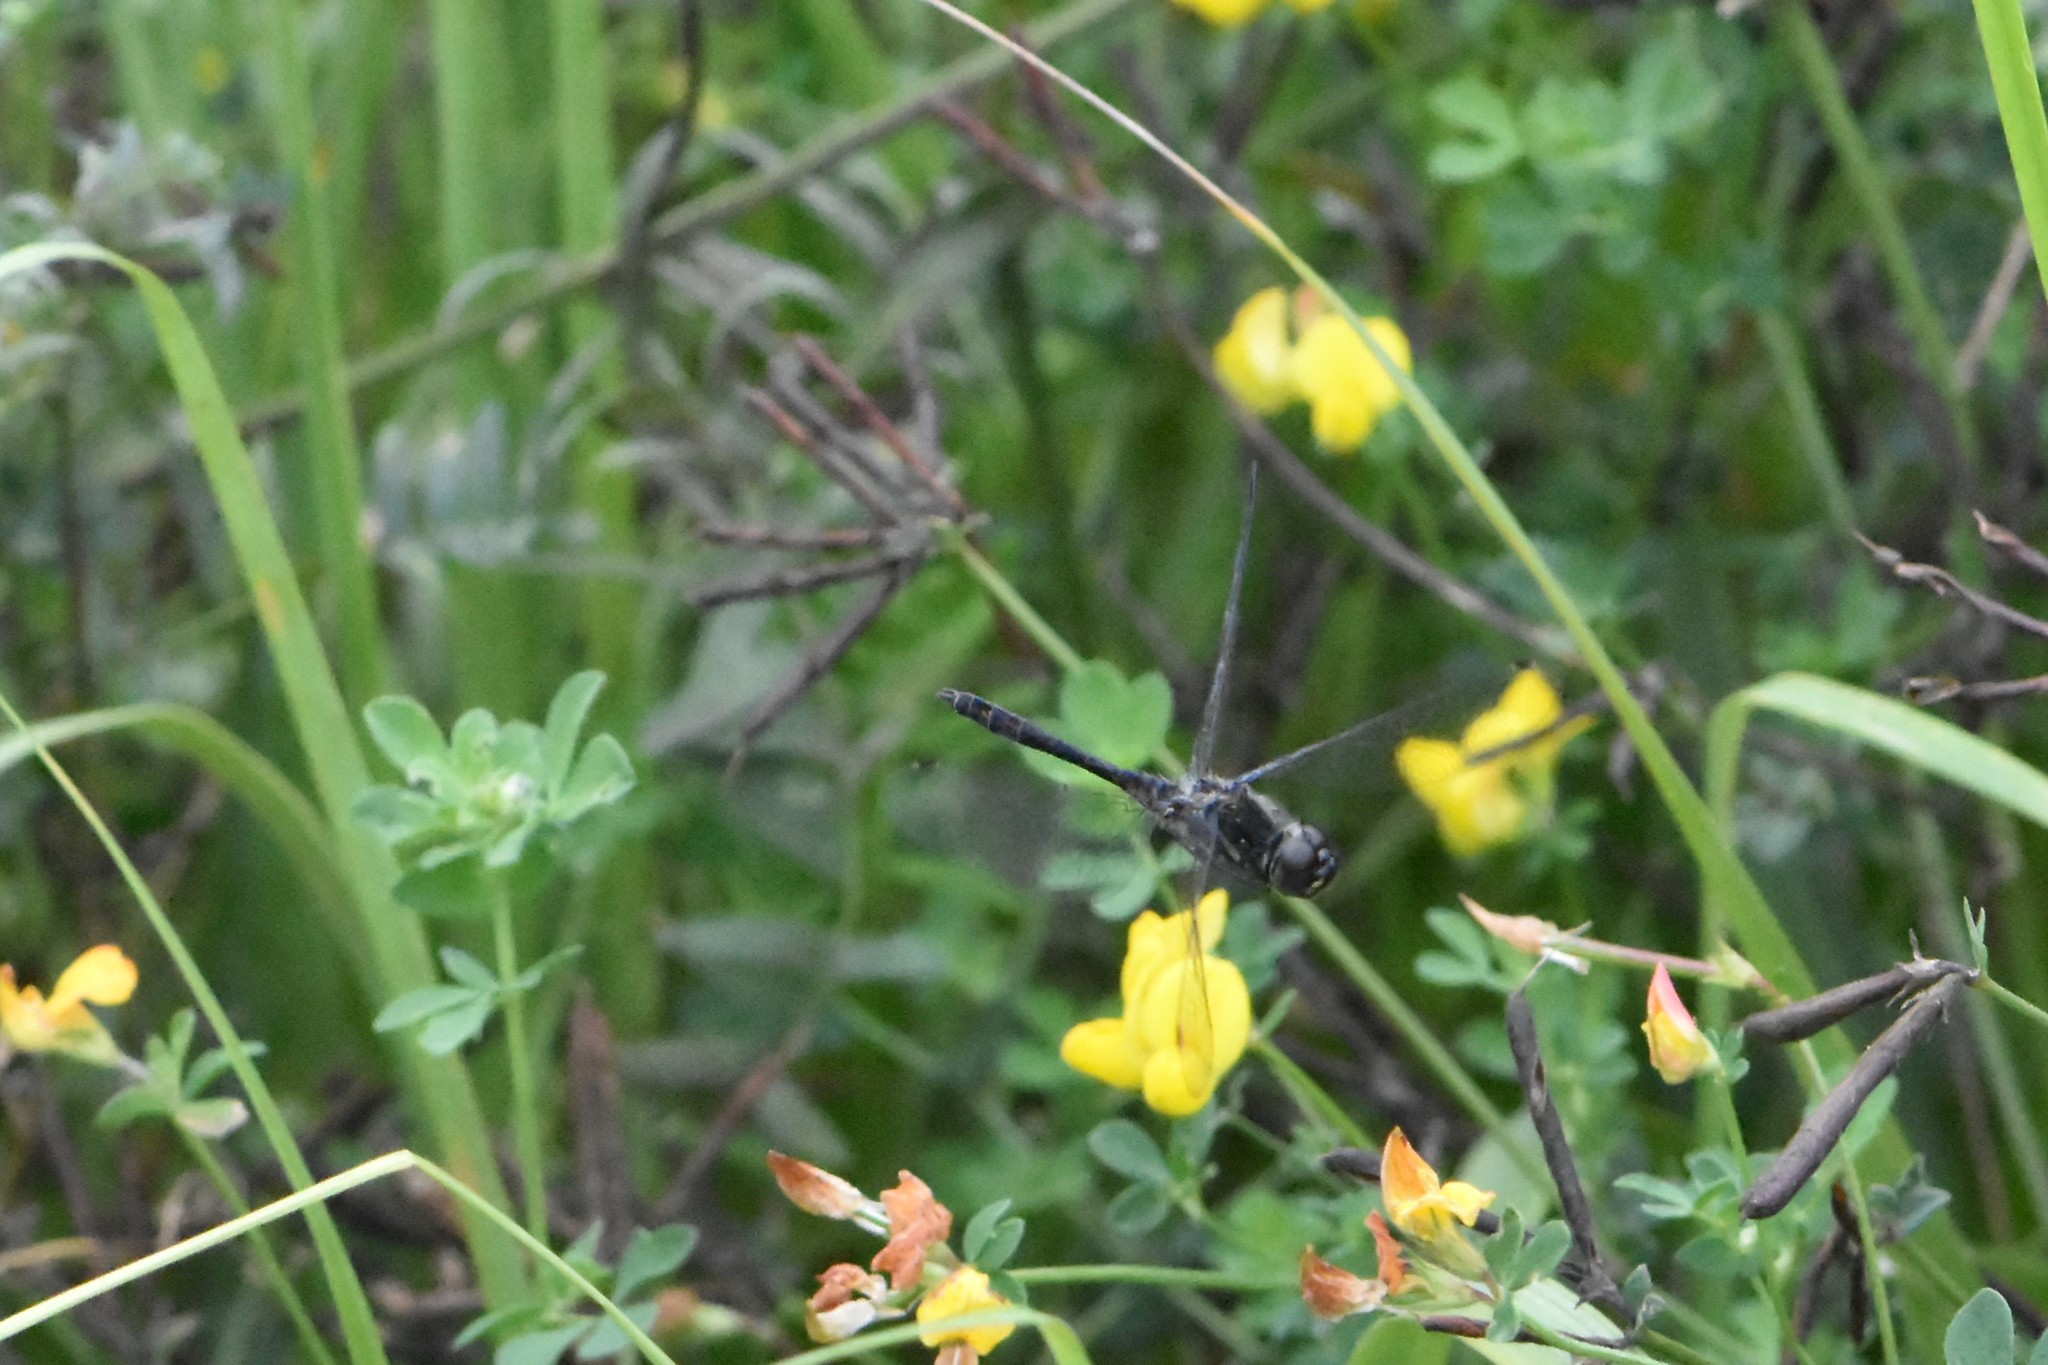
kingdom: Animalia
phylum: Arthropoda
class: Insecta
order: Odonata
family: Libellulidae
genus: Sympetrum
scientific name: Sympetrum danae
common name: Black darter
